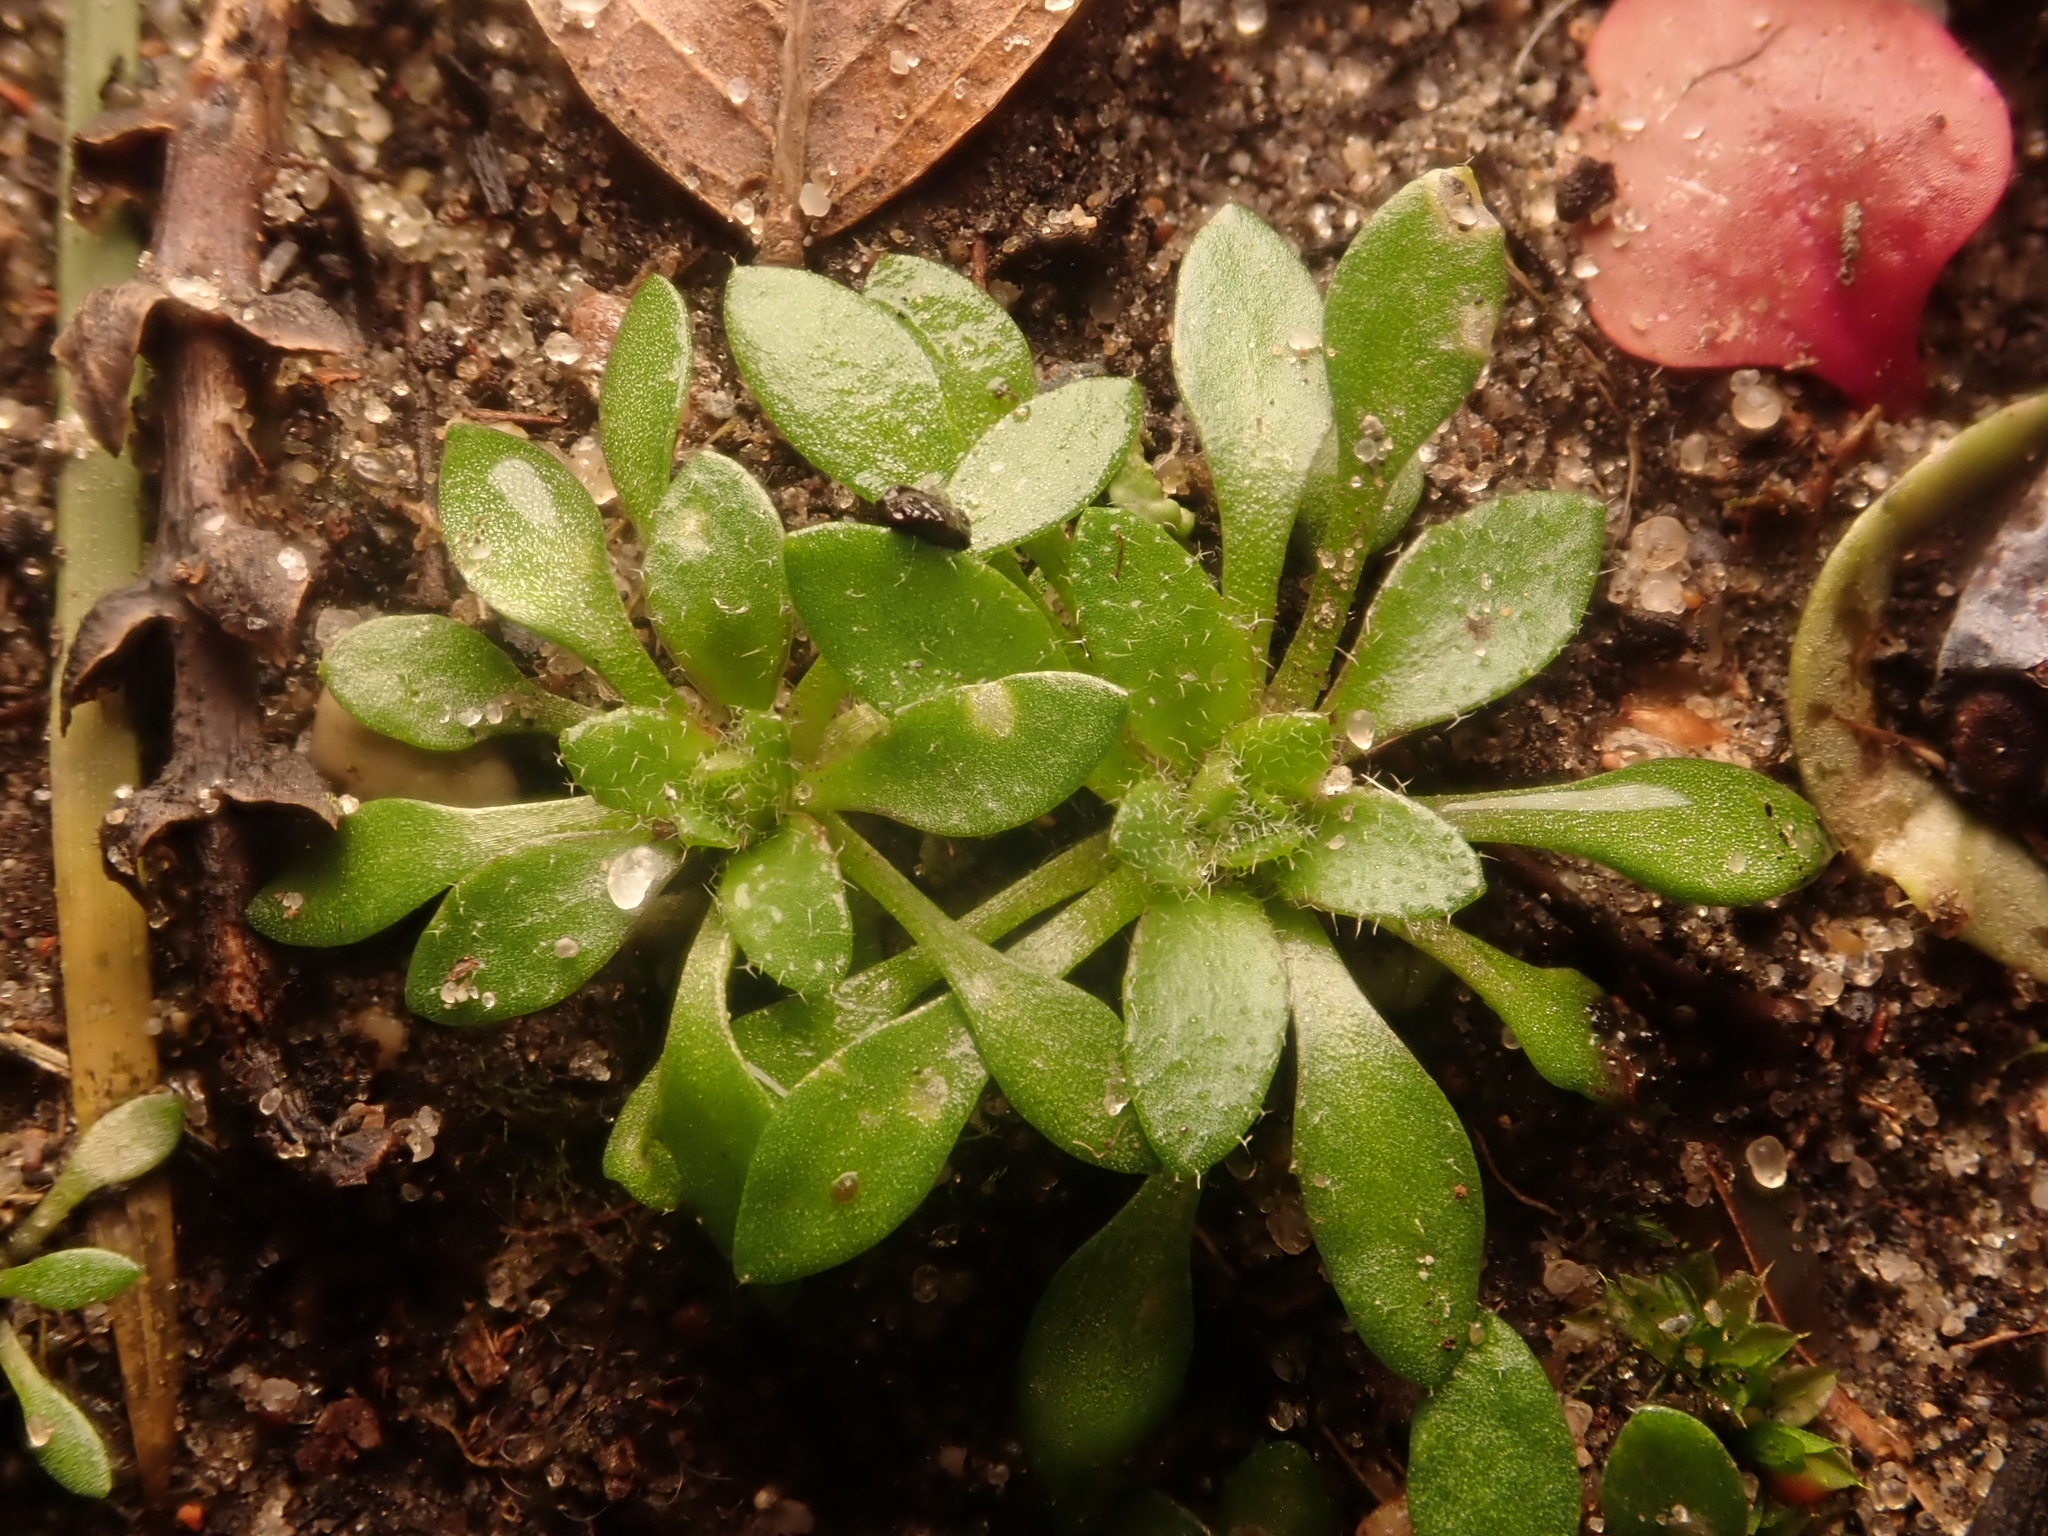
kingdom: Plantae
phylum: Tracheophyta
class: Magnoliopsida
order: Brassicales
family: Brassicaceae
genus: Draba
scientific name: Draba verna
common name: Spring draba
